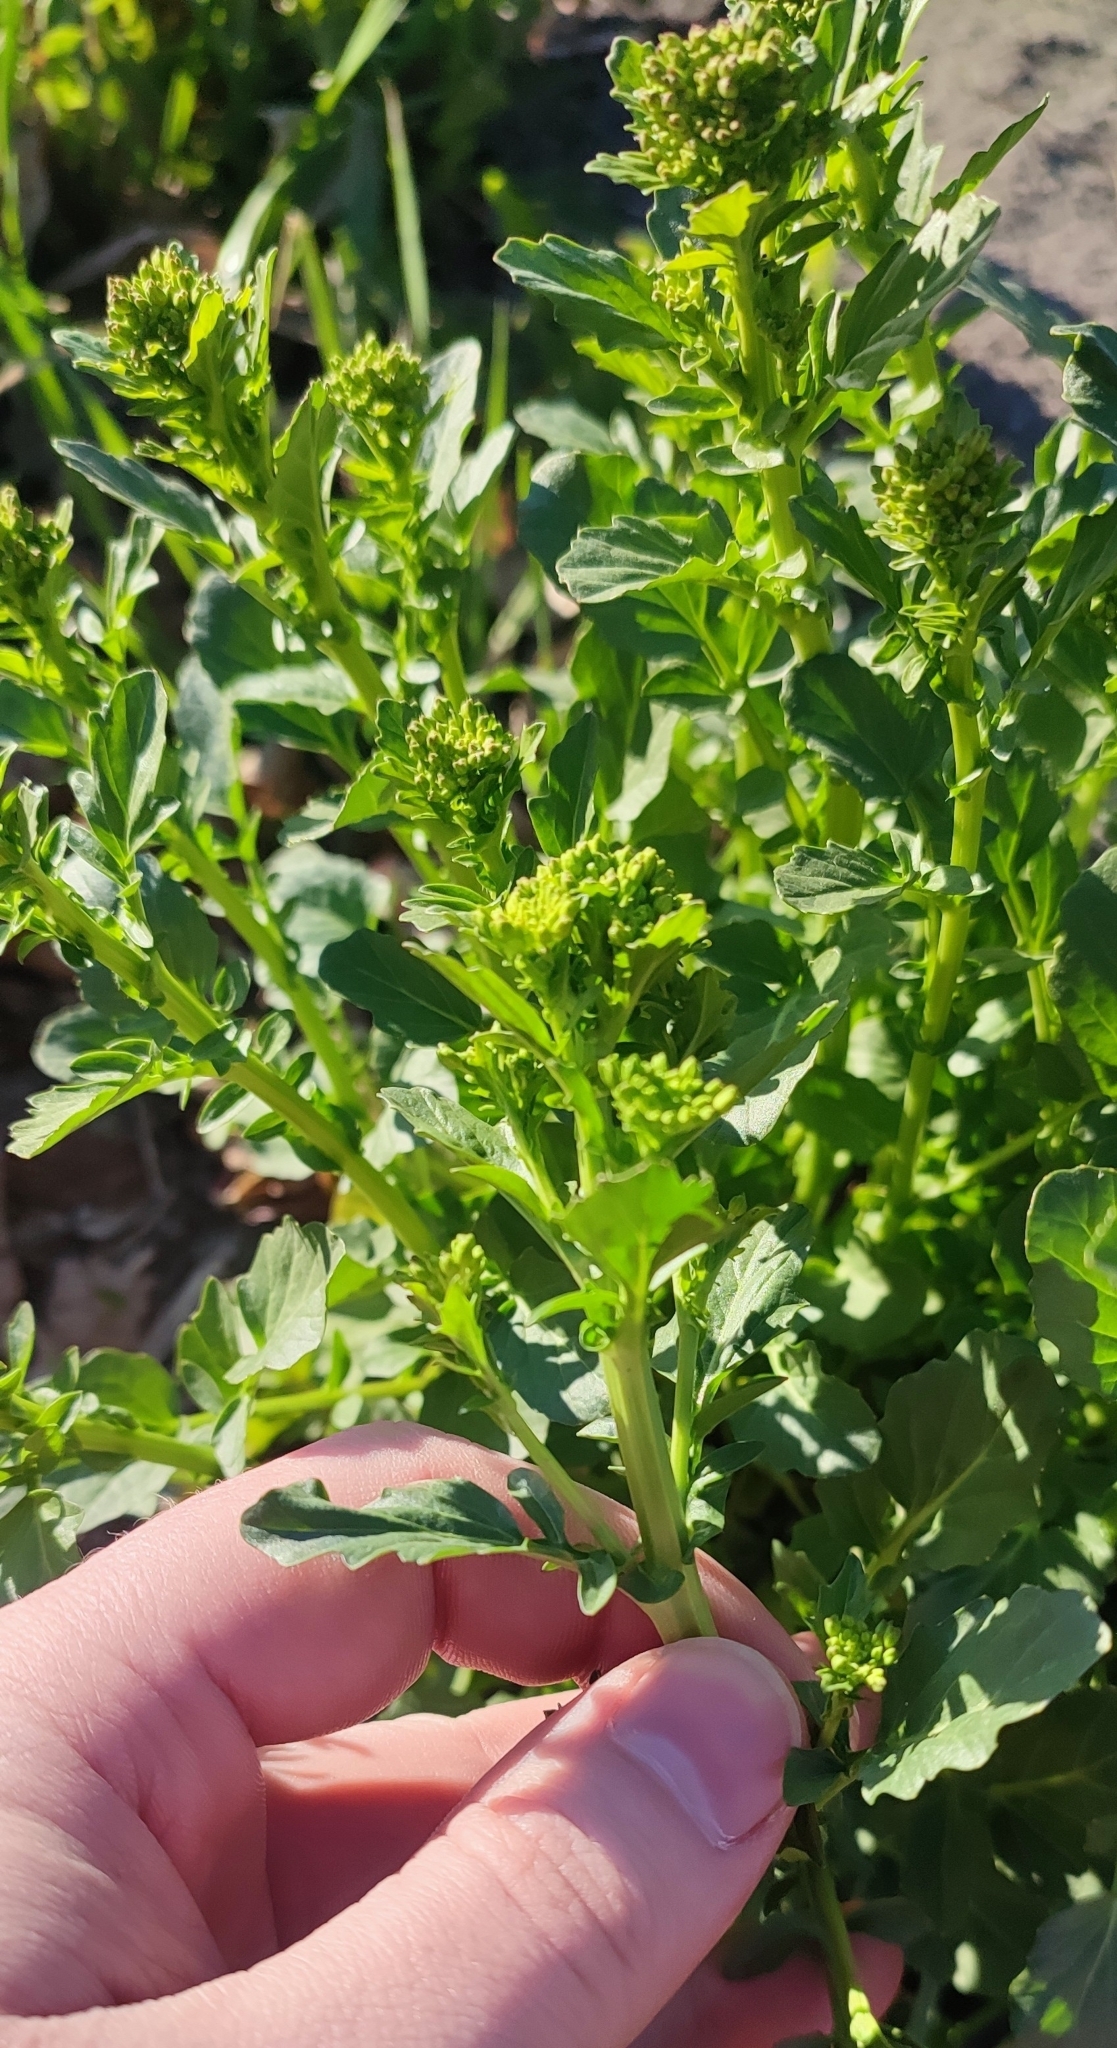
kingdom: Plantae
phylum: Tracheophyta
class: Magnoliopsida
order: Brassicales
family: Brassicaceae
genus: Barbarea
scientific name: Barbarea vulgaris
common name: Cressy-greens
